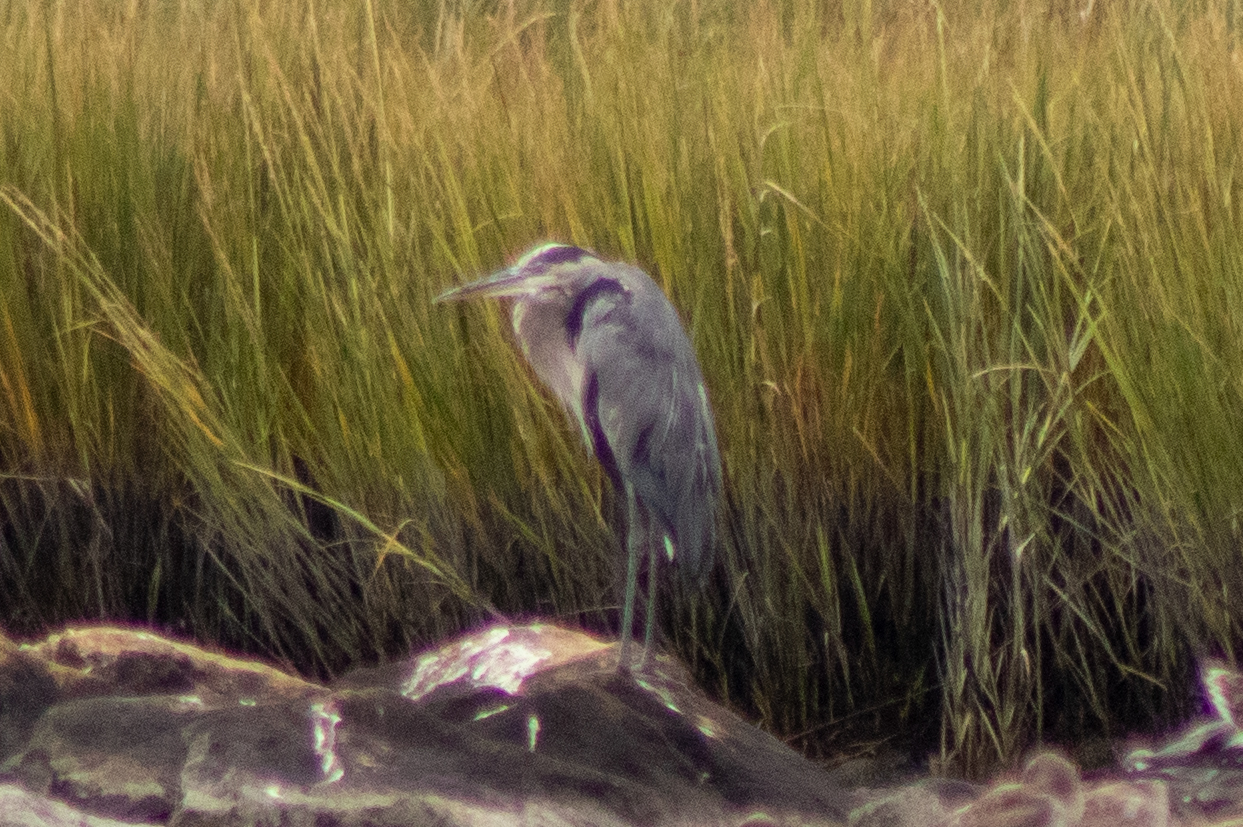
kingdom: Animalia
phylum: Chordata
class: Aves
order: Pelecaniformes
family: Ardeidae
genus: Ardea
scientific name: Ardea herodias
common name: Great blue heron
